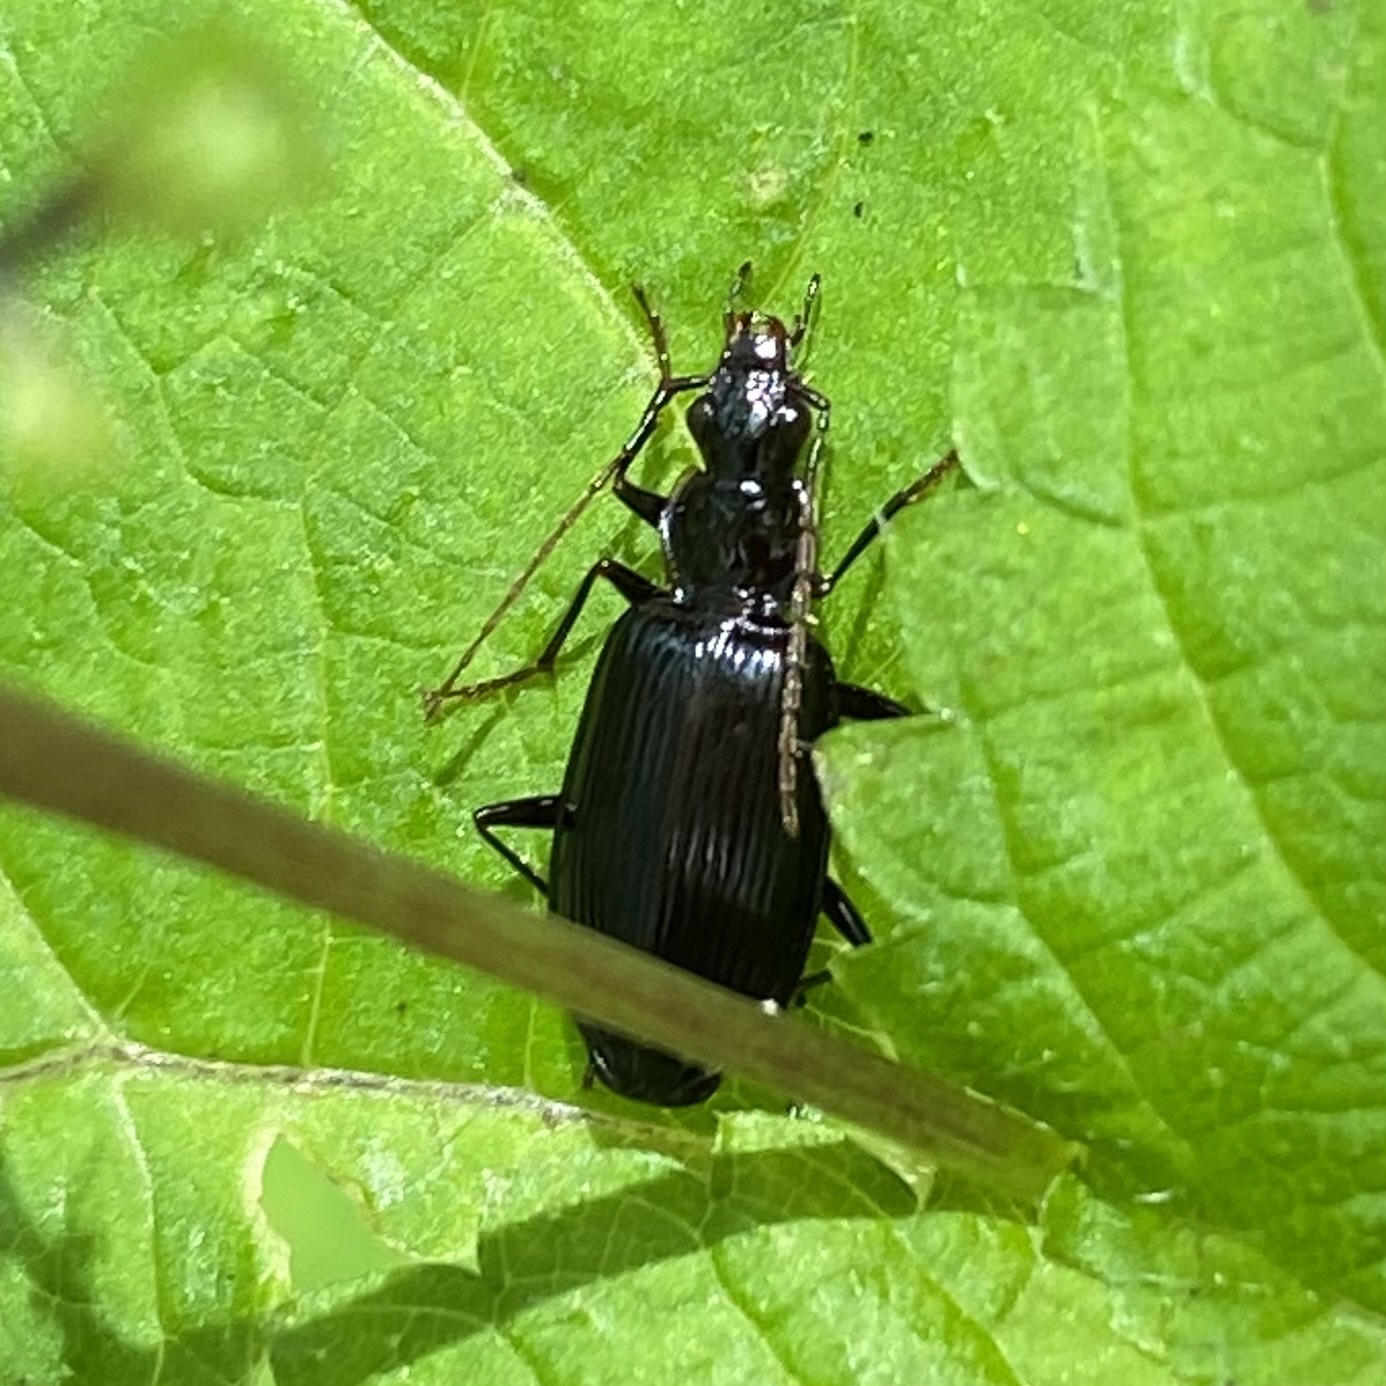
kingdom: Animalia
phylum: Arthropoda
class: Insecta
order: Coleoptera
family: Carabidae
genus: Platynus
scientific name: Platynus
